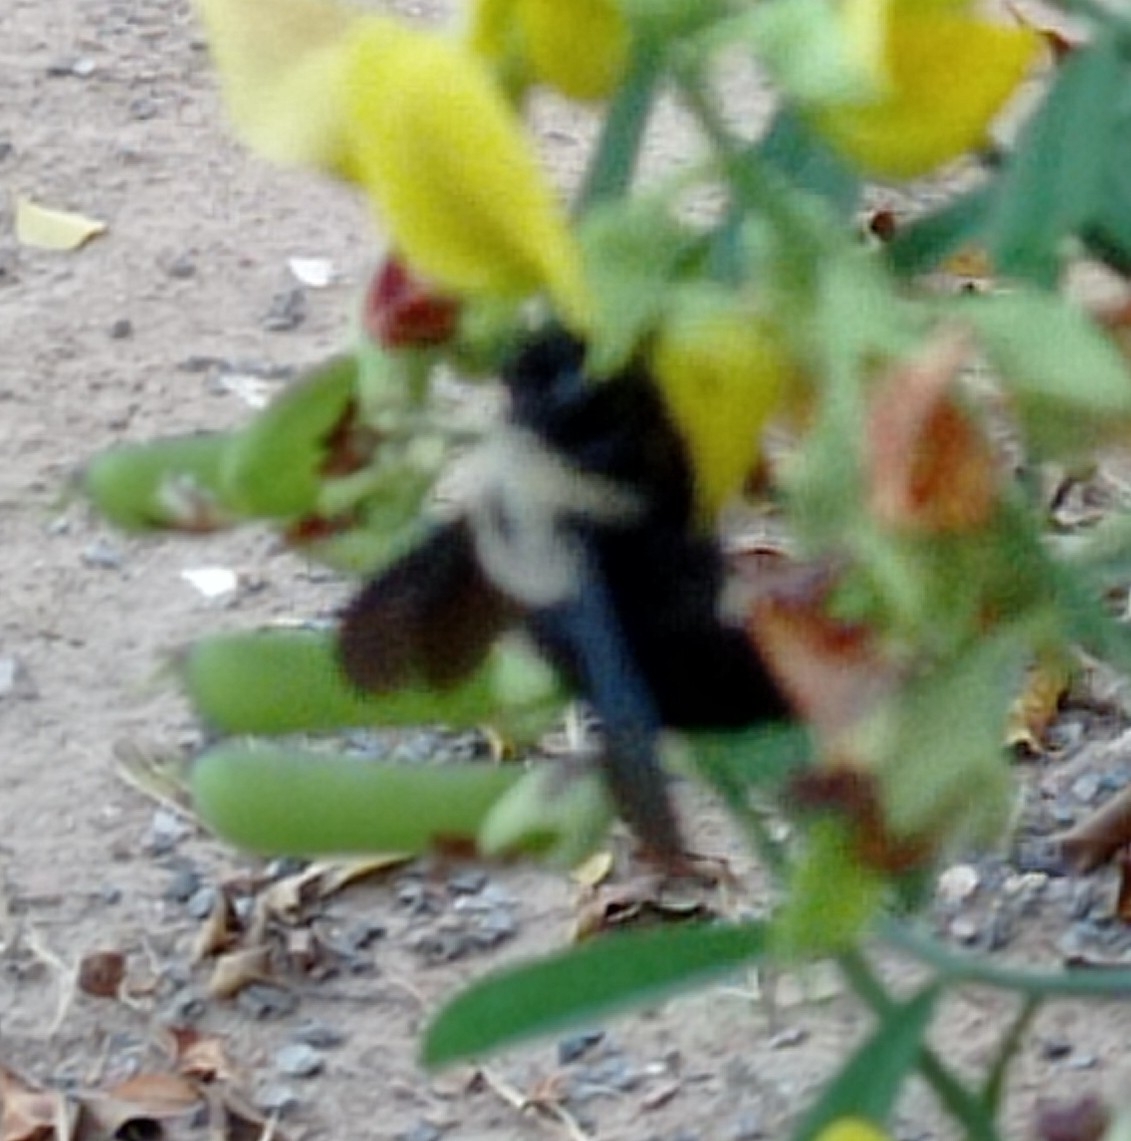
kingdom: Animalia
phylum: Arthropoda
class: Insecta
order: Hymenoptera
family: Apidae
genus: Xylocopa
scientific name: Xylocopa cearensis
